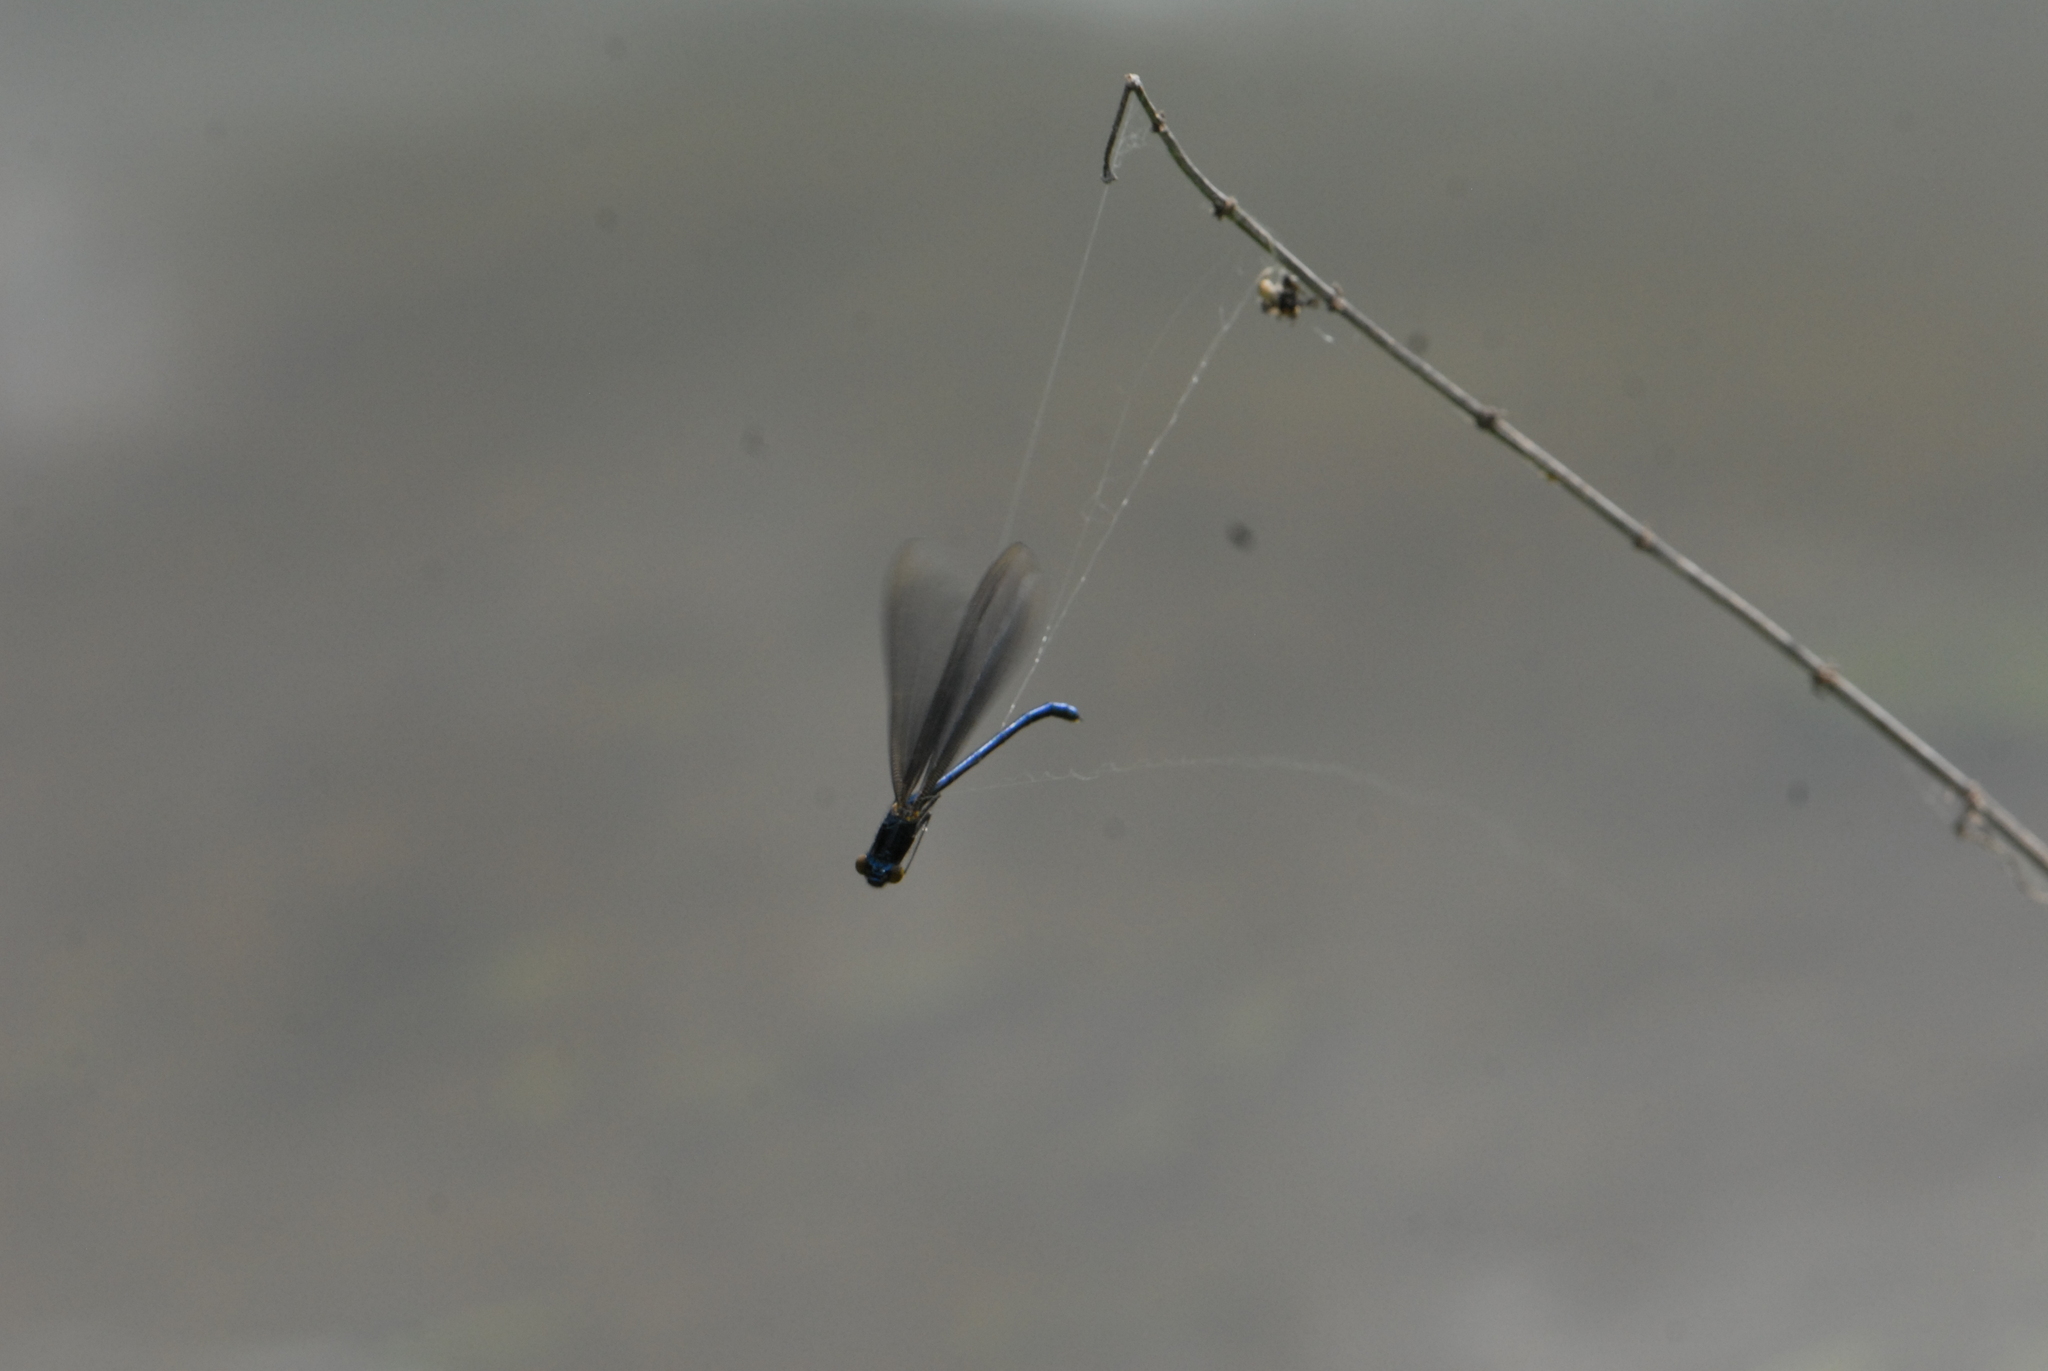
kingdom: Animalia
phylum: Arthropoda
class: Insecta
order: Odonata
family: Calopterygidae
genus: Calopteryx
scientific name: Calopteryx virgo
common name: Beautiful demoiselle
